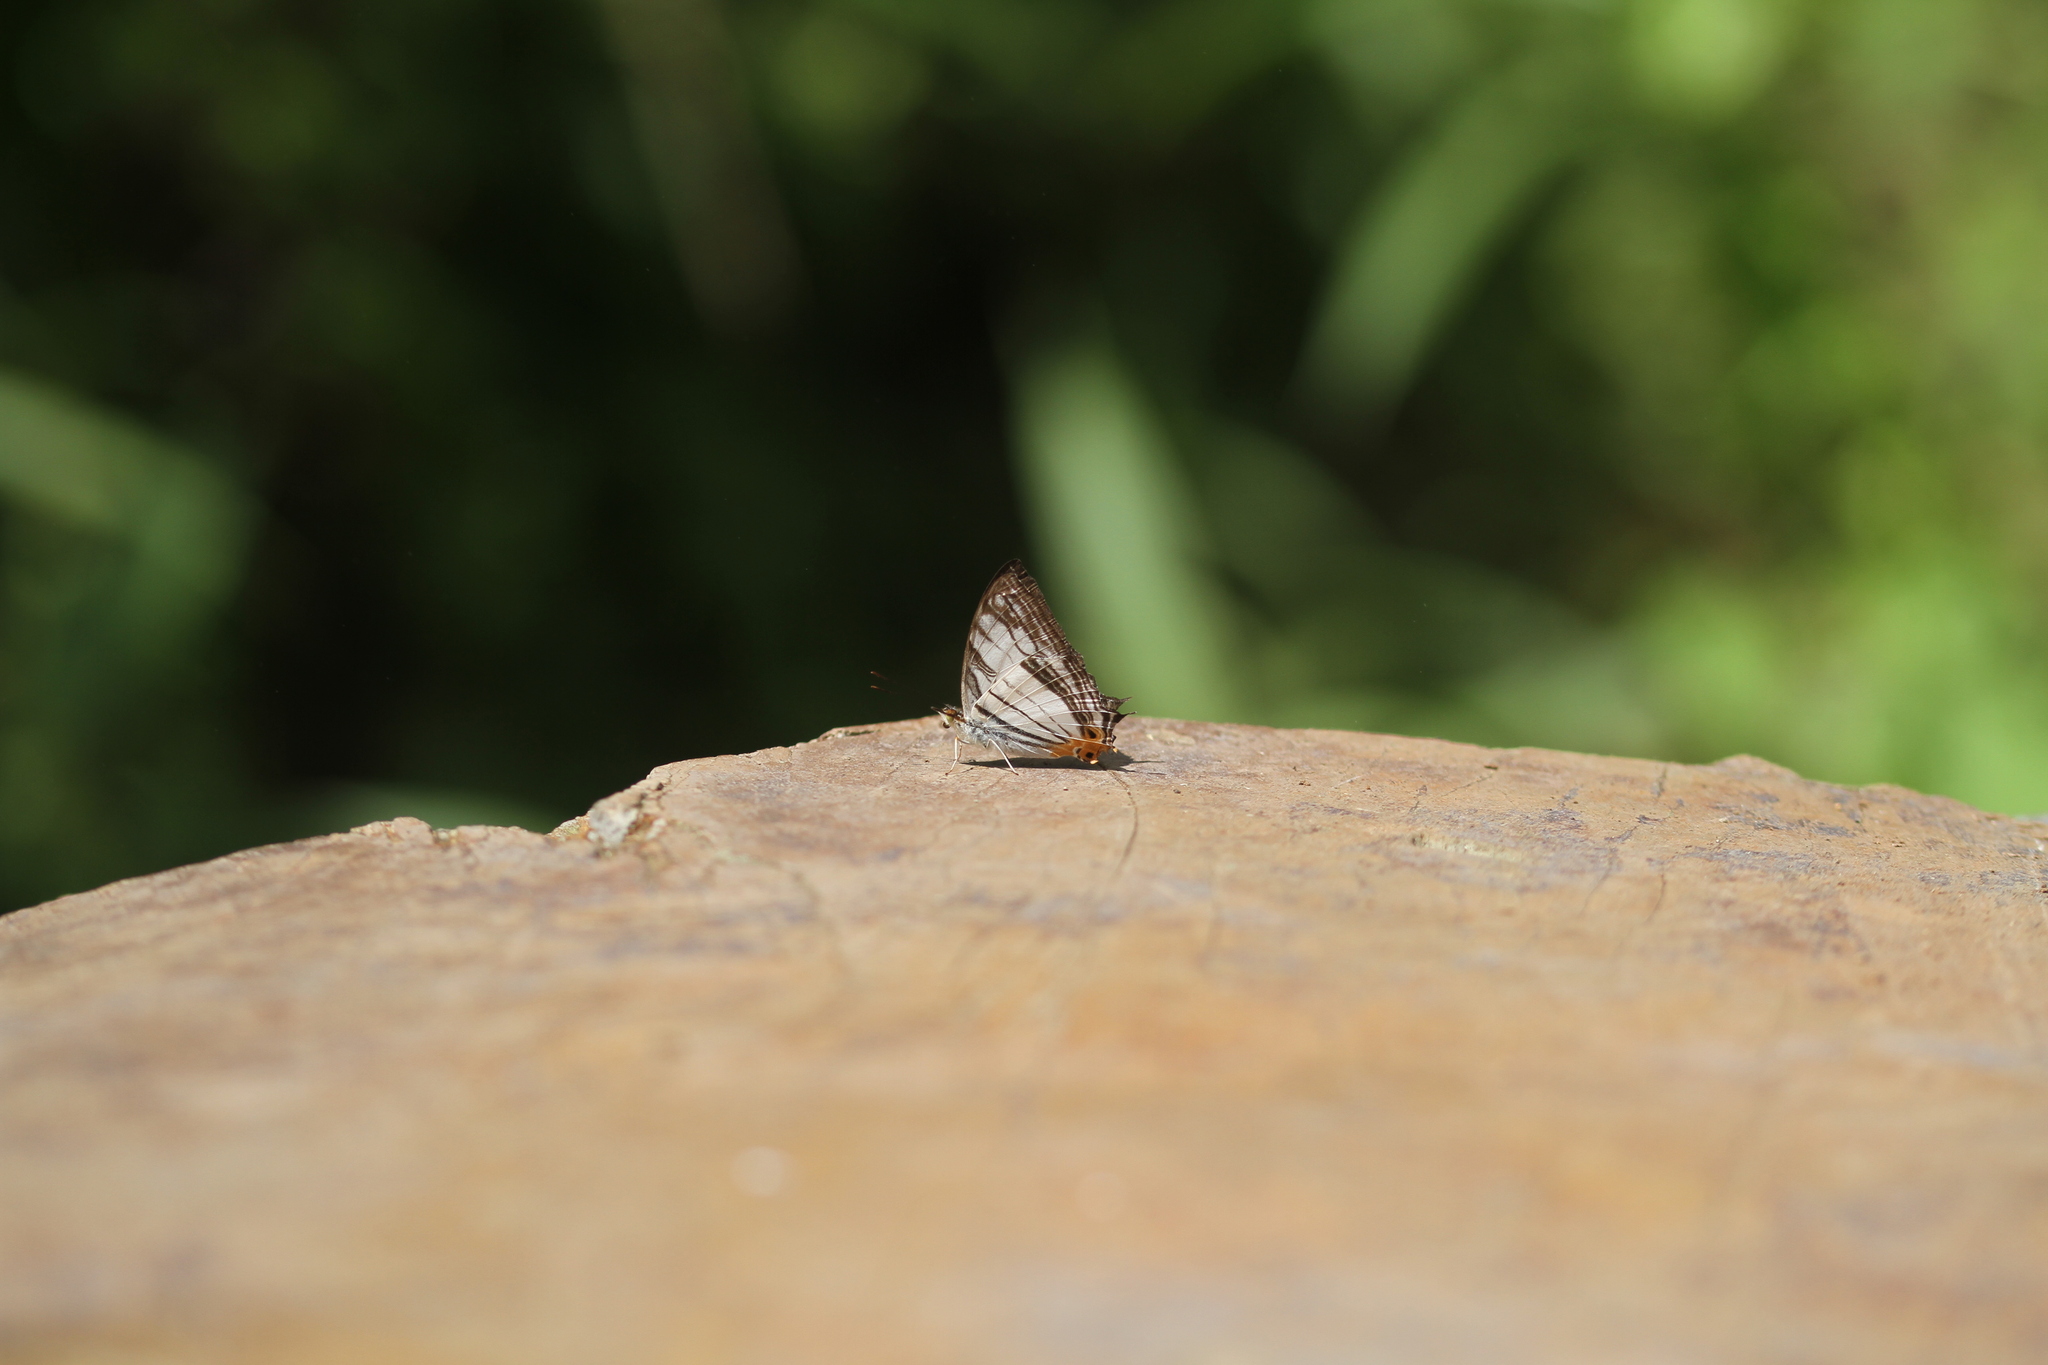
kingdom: Animalia
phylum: Arthropoda
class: Insecta
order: Lepidoptera
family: Nymphalidae
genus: Cyrestis
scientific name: Cyrestis maenalis
